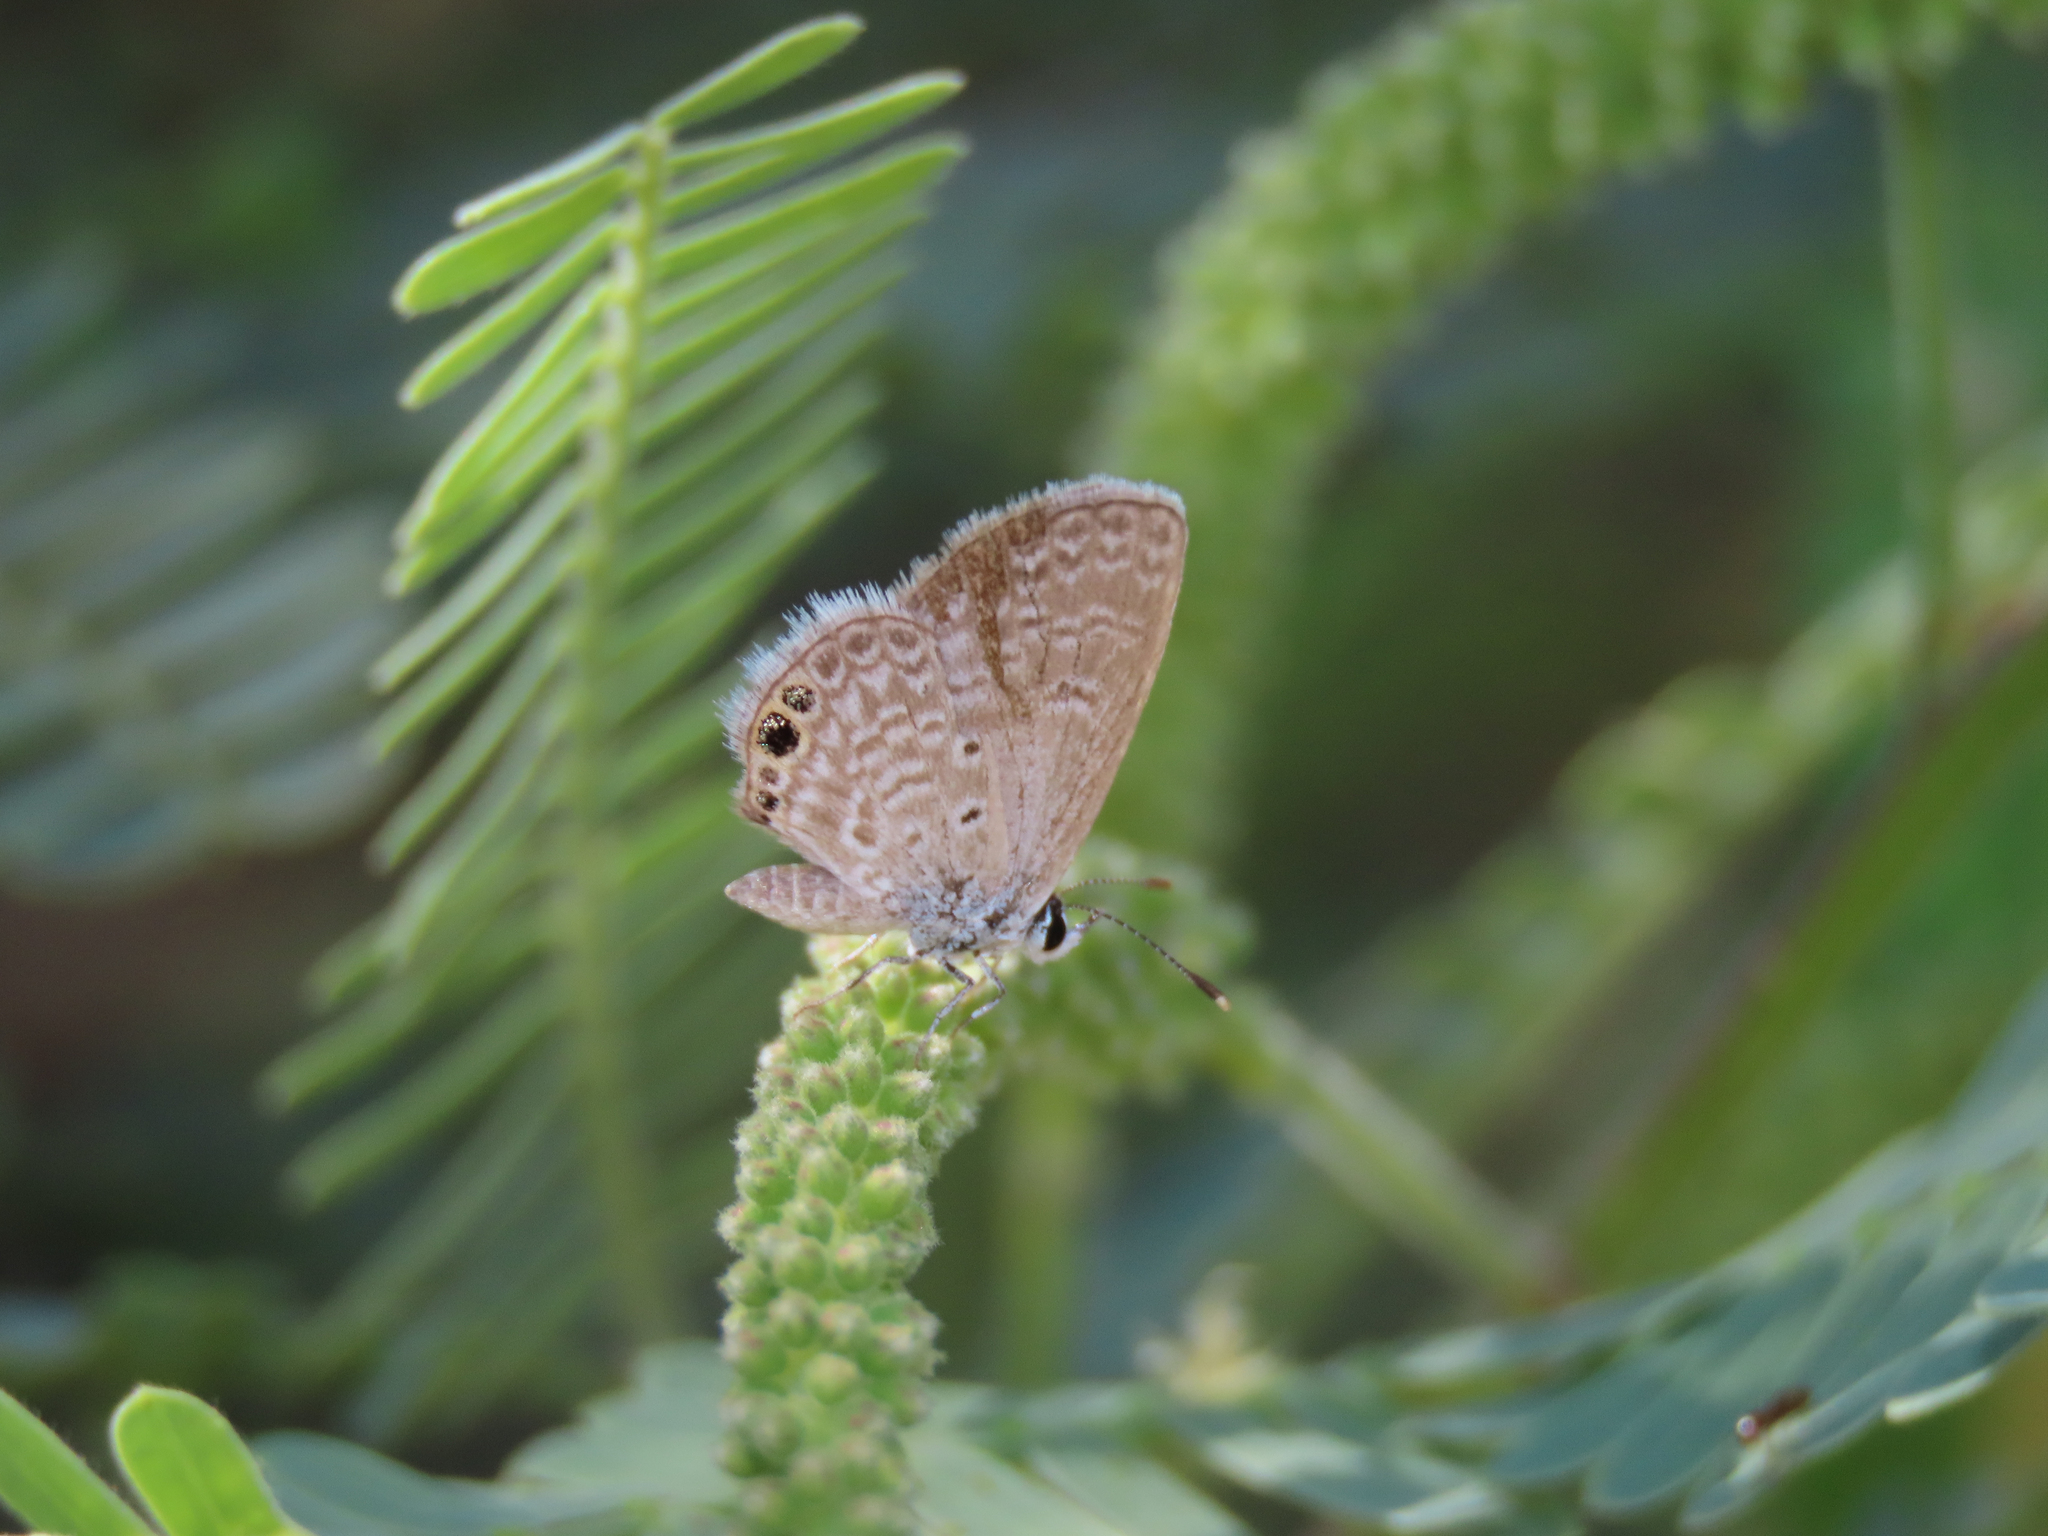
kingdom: Animalia
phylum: Arthropoda
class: Insecta
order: Lepidoptera
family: Lycaenidae
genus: Hemiargus
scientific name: Hemiargus ceraunus
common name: Ceraunus blue
